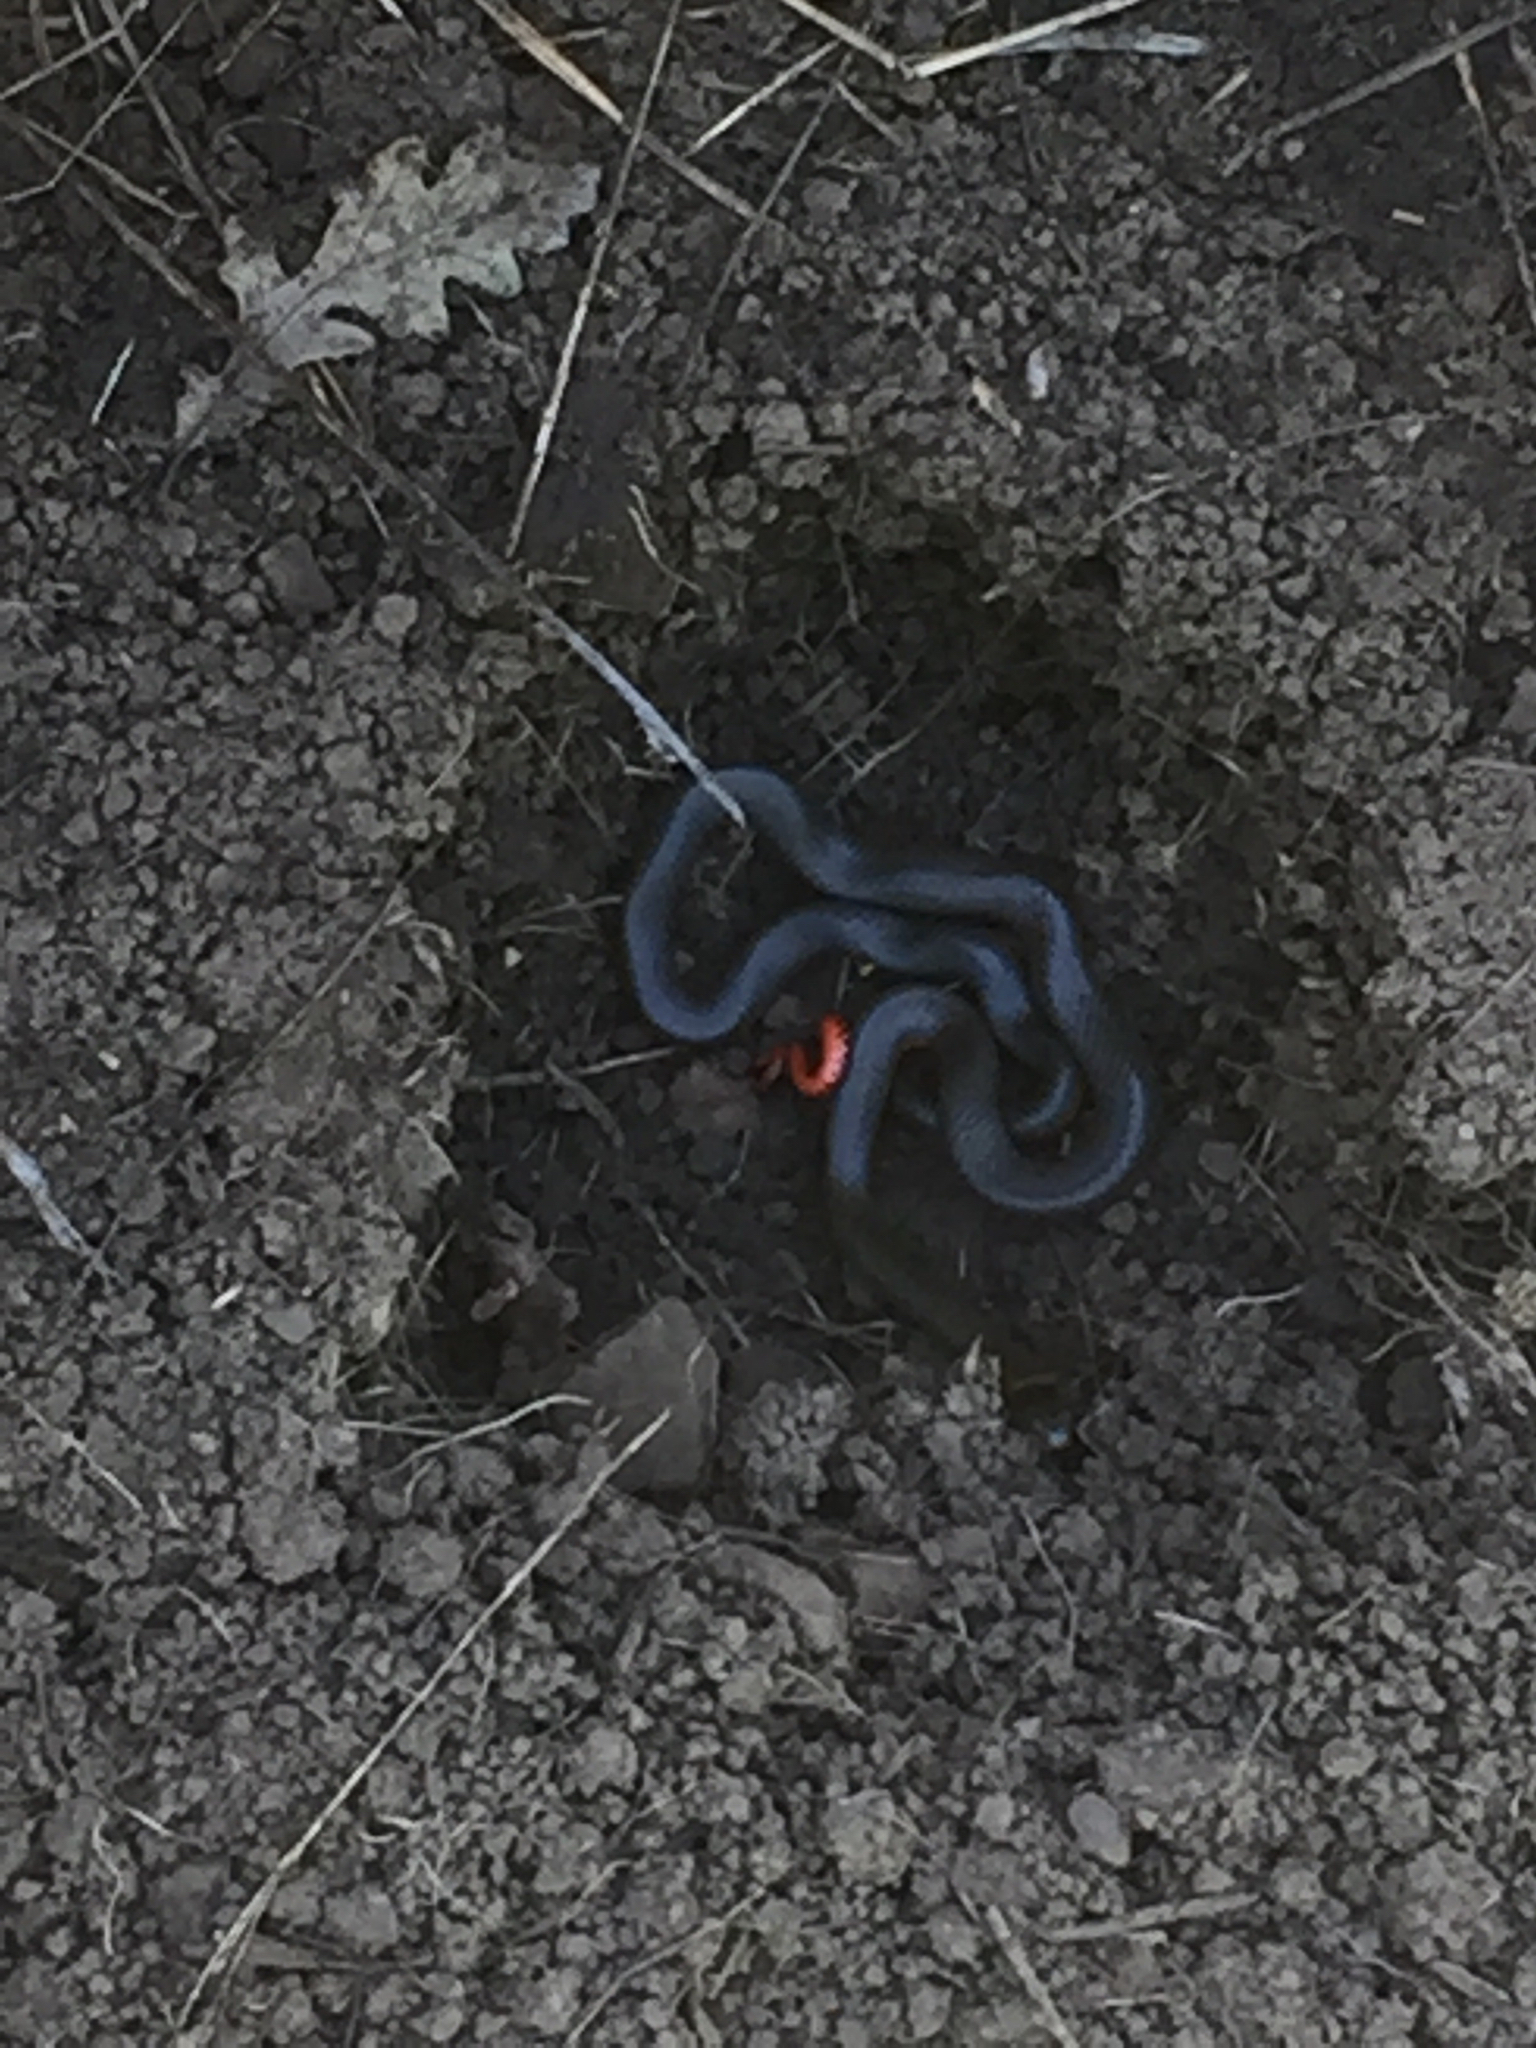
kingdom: Animalia
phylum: Chordata
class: Squamata
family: Colubridae
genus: Diadophis
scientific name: Diadophis punctatus
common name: Ringneck snake
